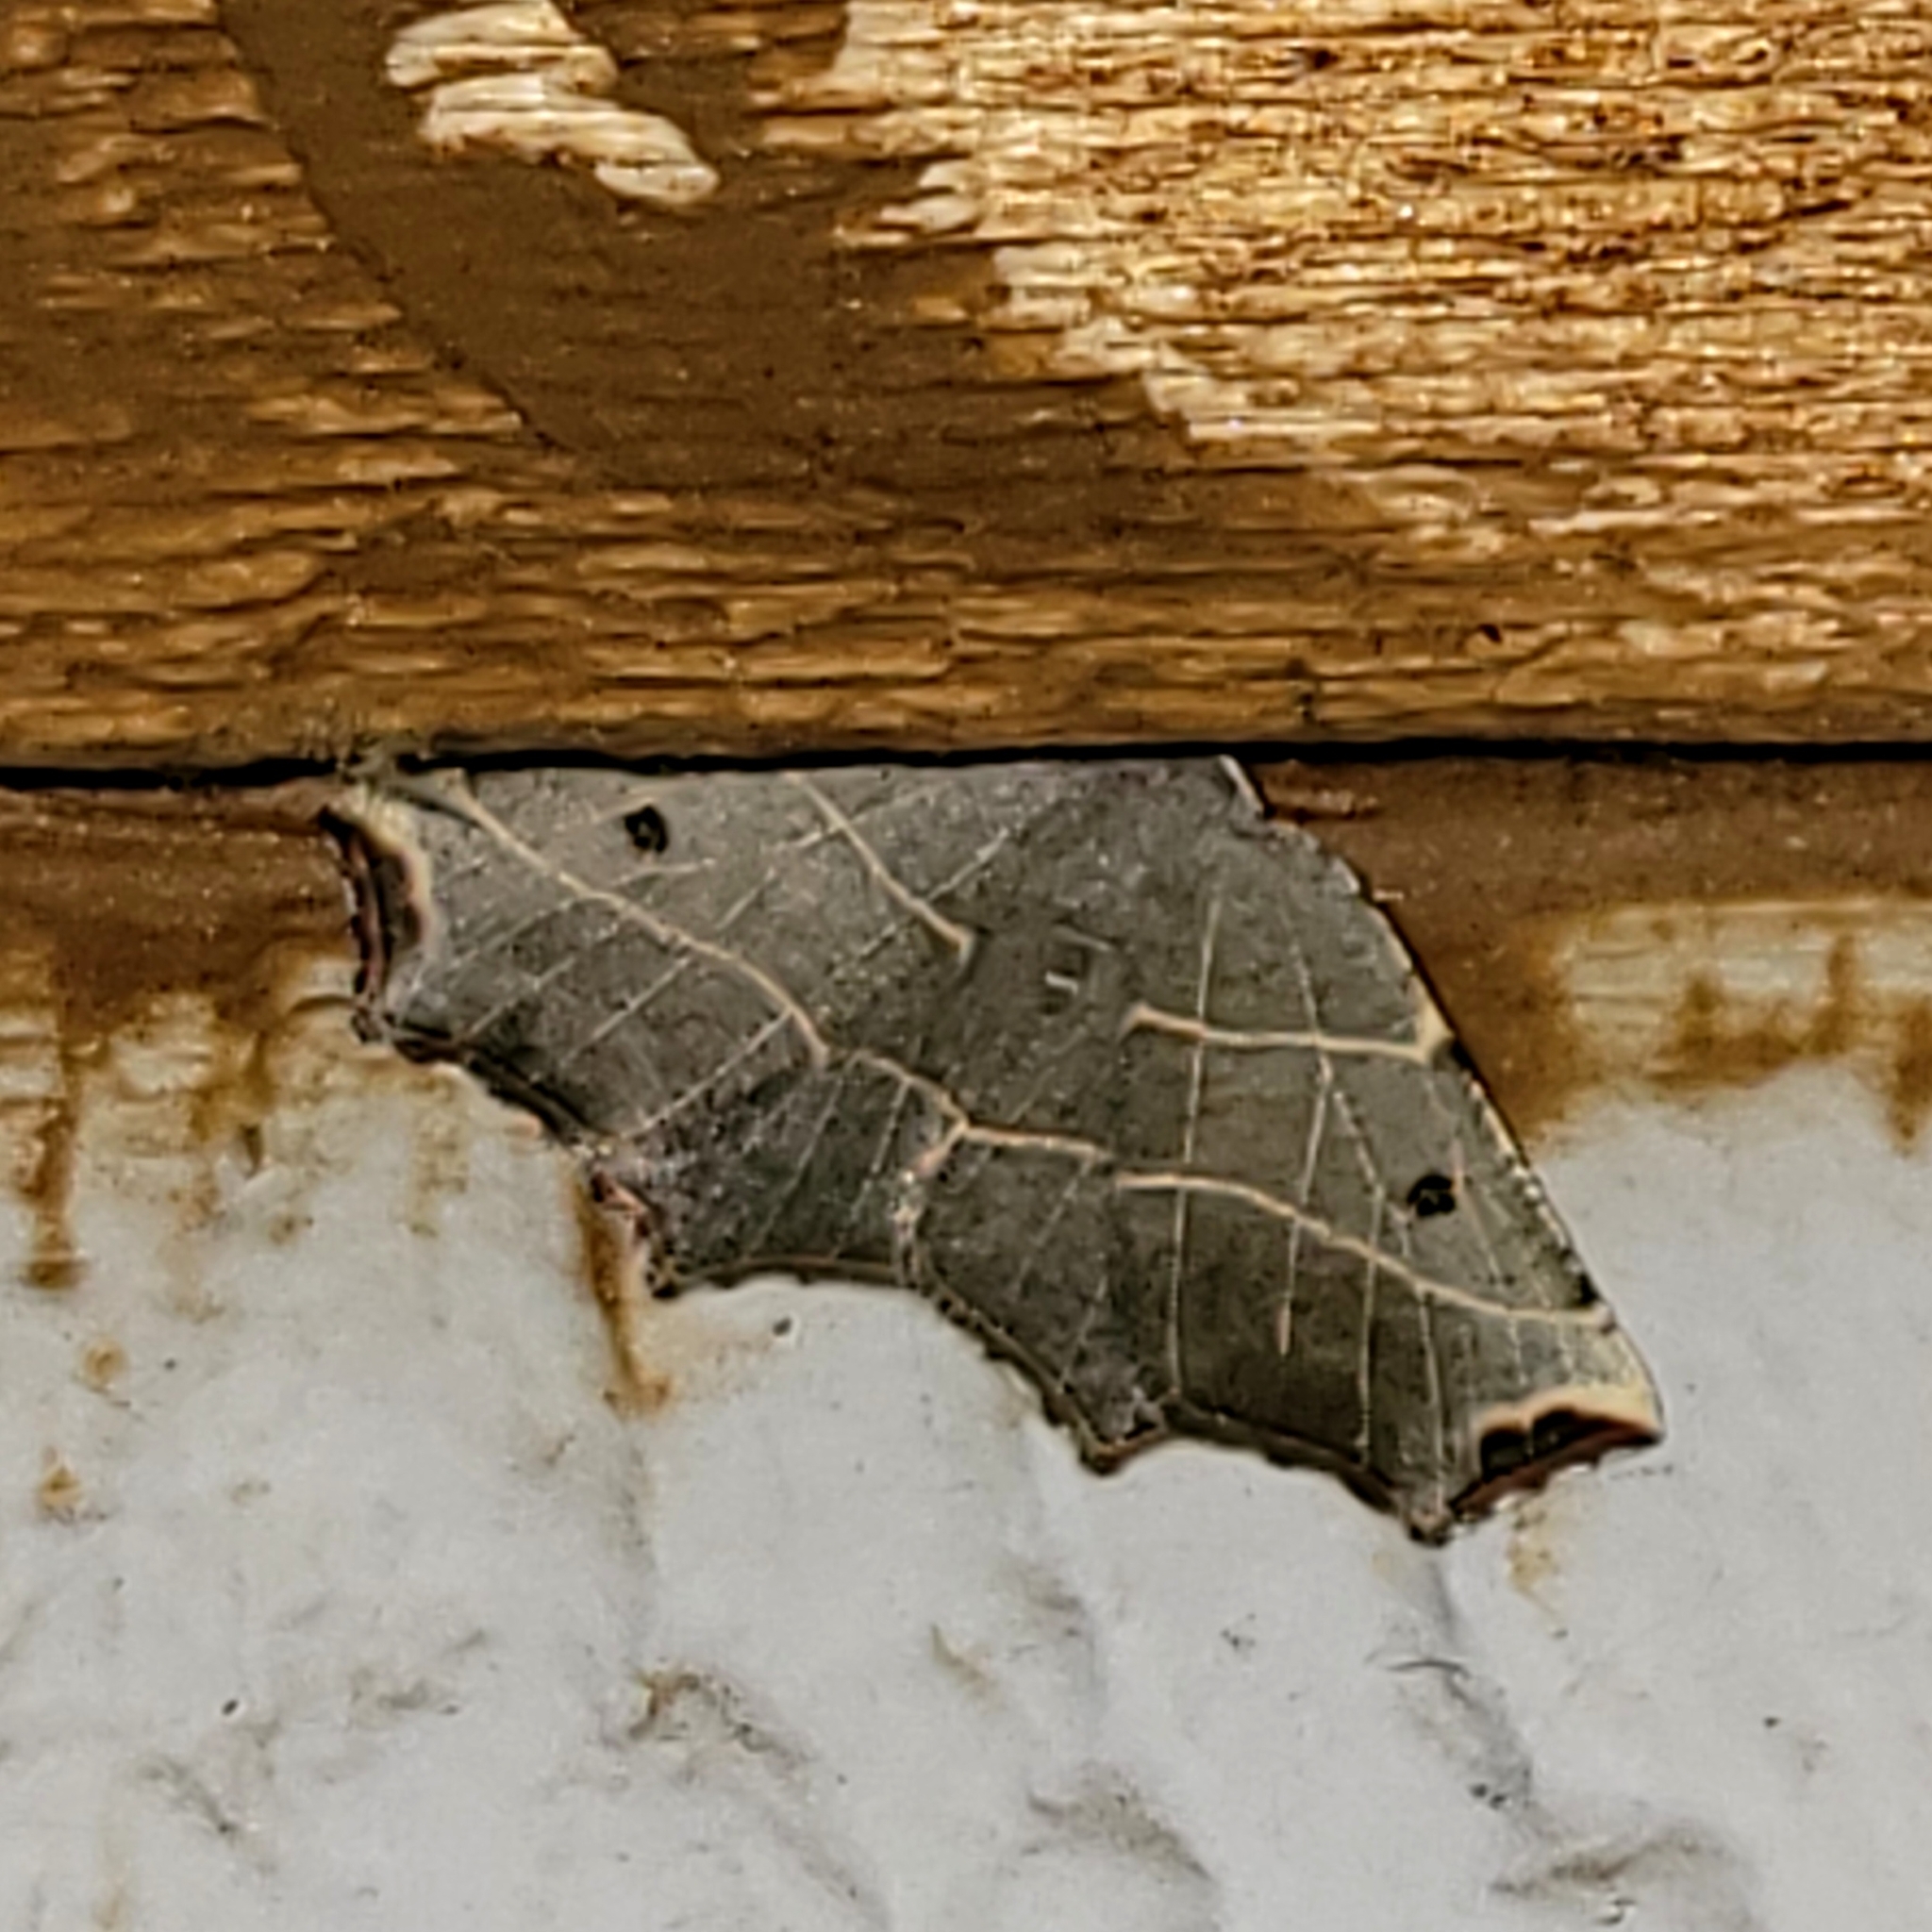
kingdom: Animalia
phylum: Arthropoda
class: Insecta
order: Lepidoptera
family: Geometridae
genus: Metanema
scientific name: Metanema inatomaria
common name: Pale metanema
